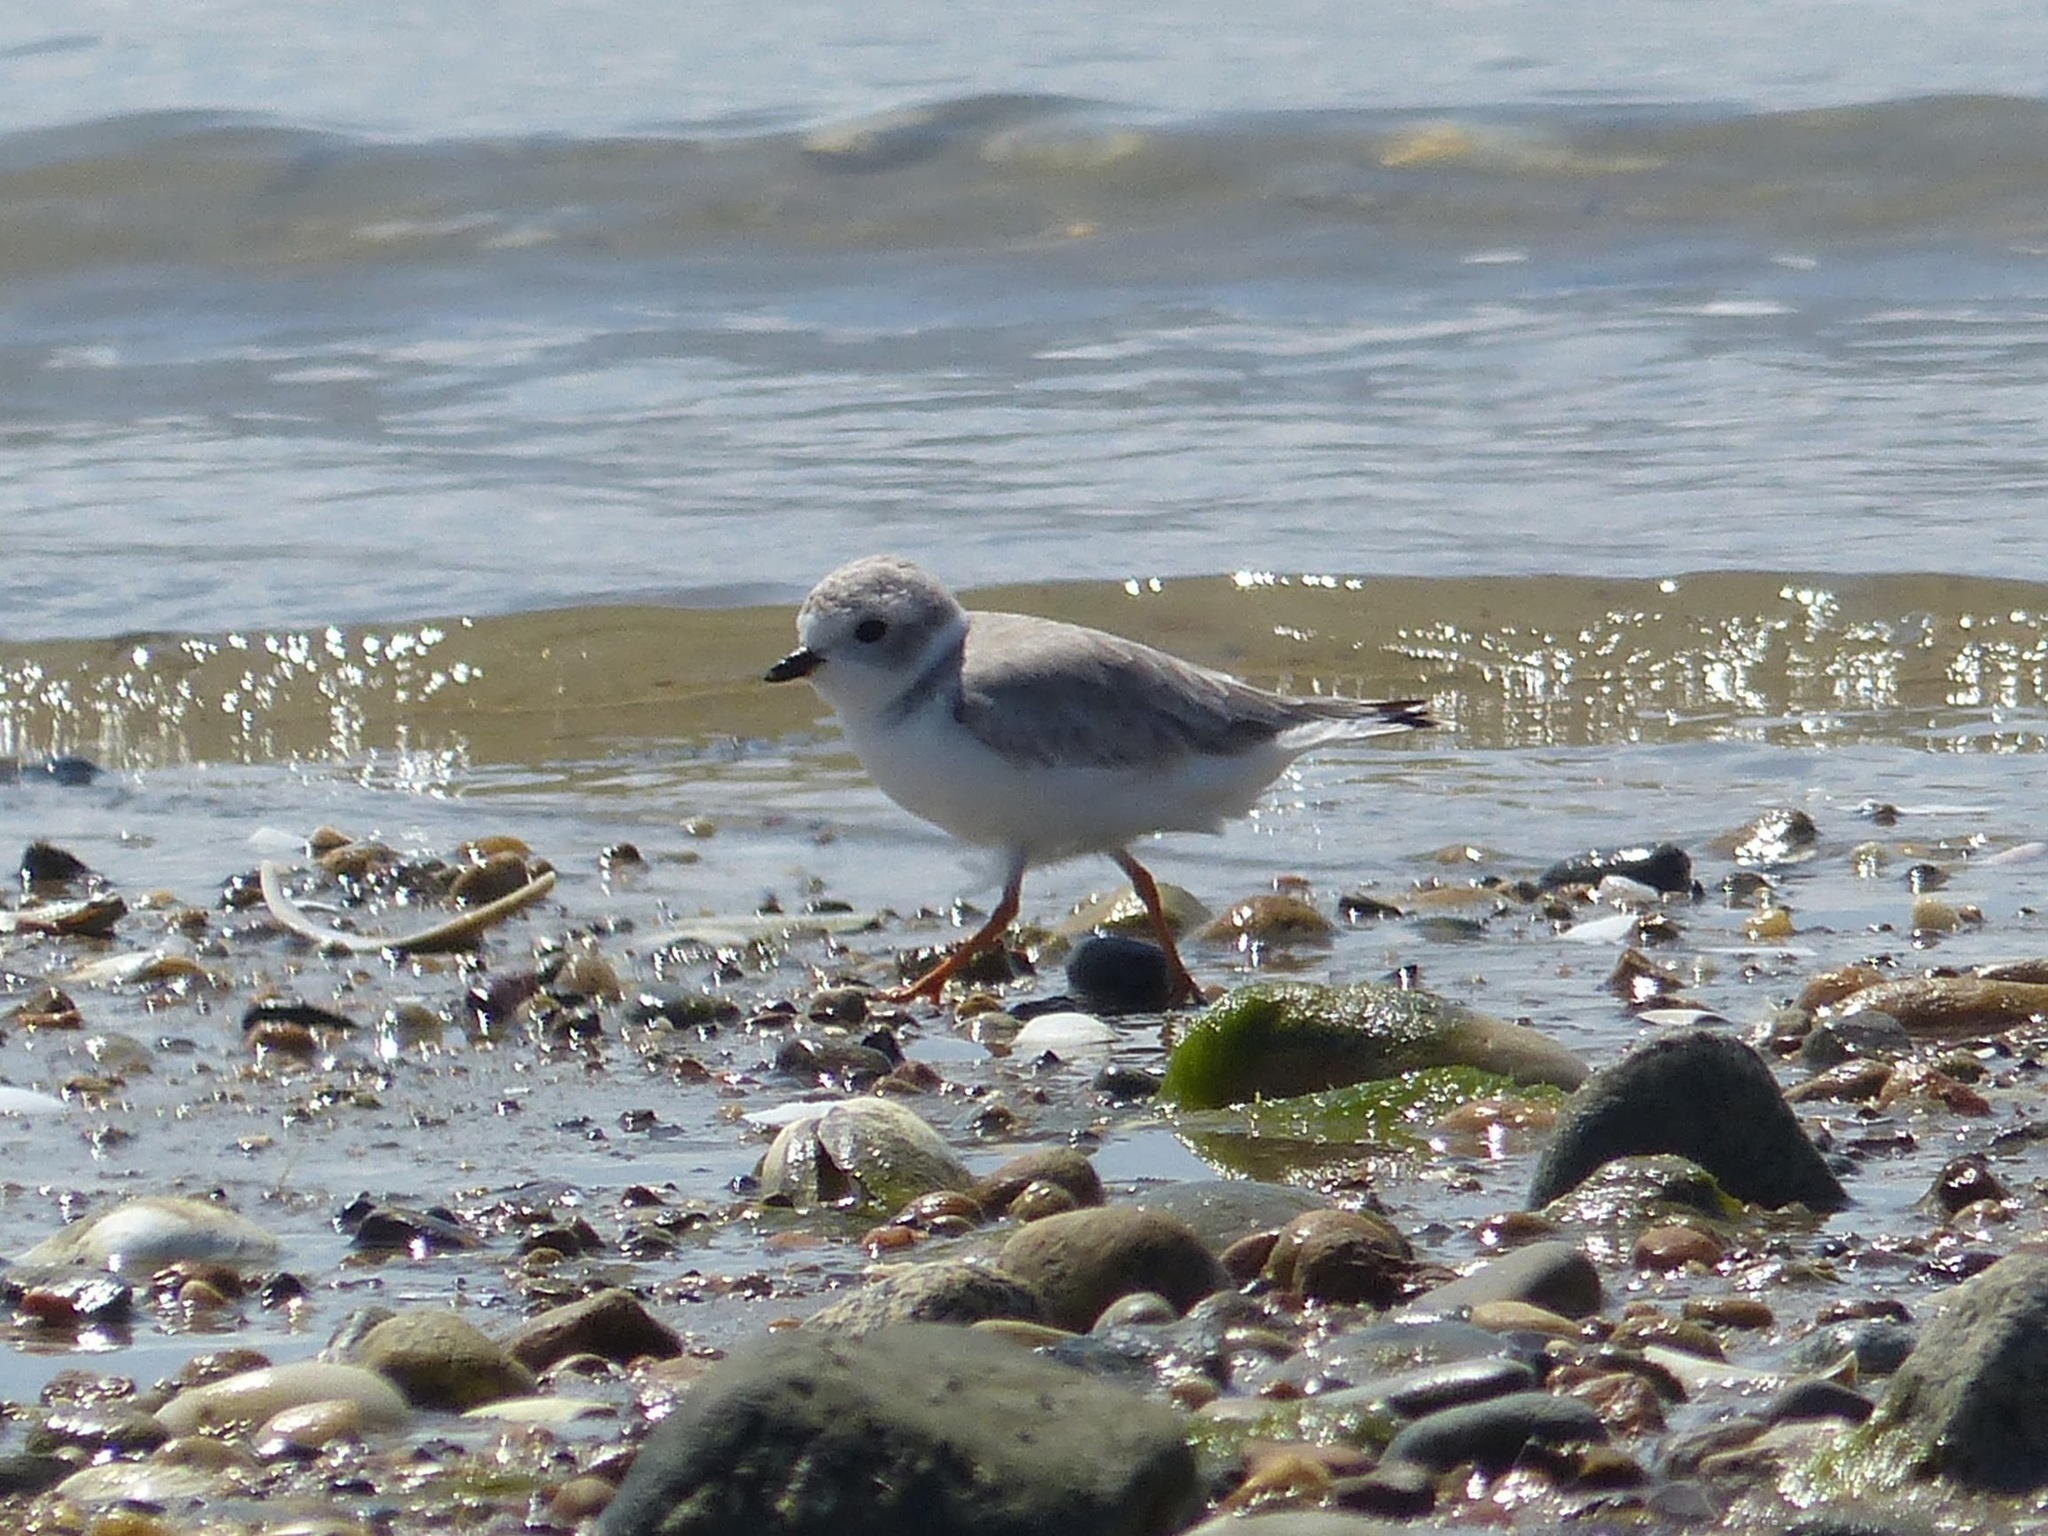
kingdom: Animalia
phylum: Chordata
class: Aves
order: Charadriiformes
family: Charadriidae
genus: Charadrius
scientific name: Charadrius melodus
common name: Piping plover
